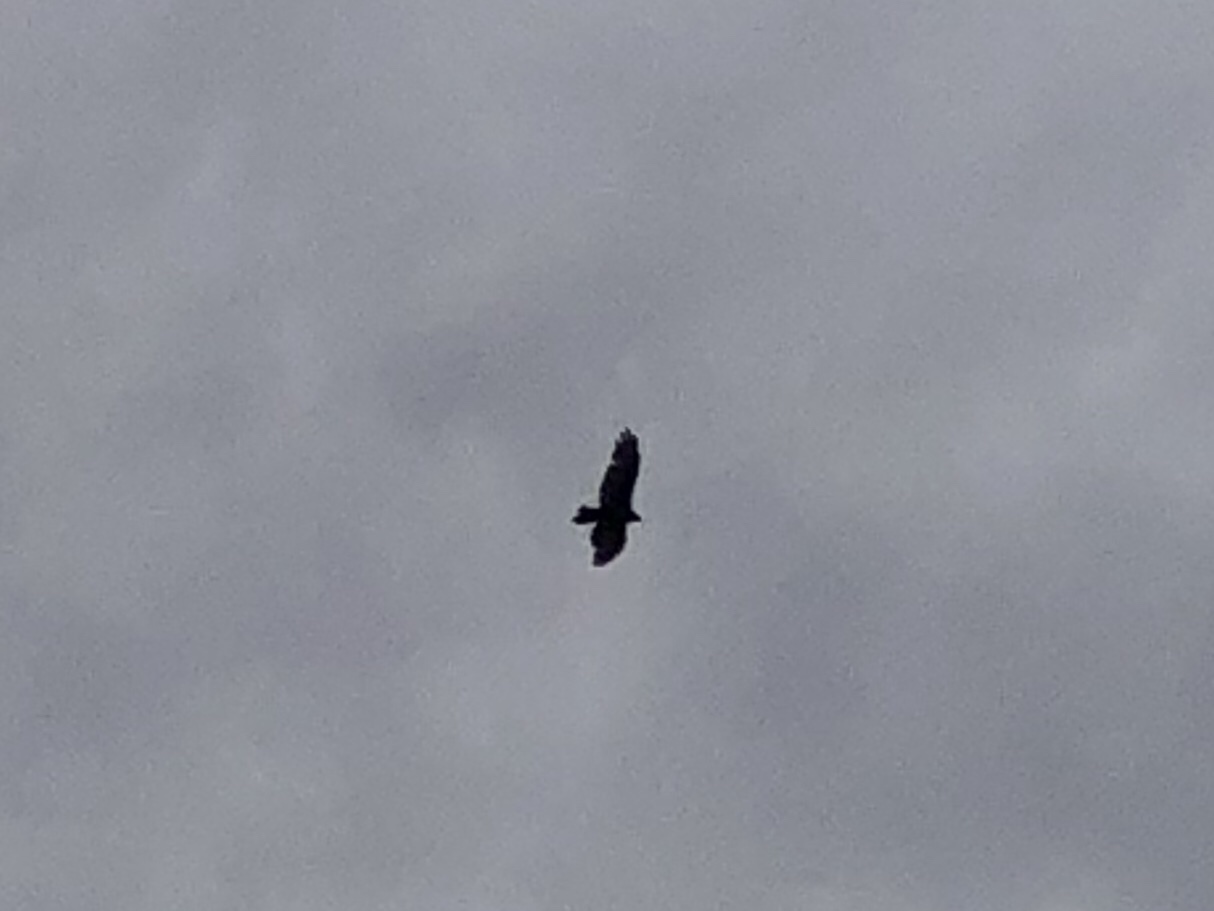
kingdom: Animalia
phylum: Chordata
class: Aves
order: Accipitriformes
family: Cathartidae
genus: Cathartes
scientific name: Cathartes aura
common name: Turkey vulture
